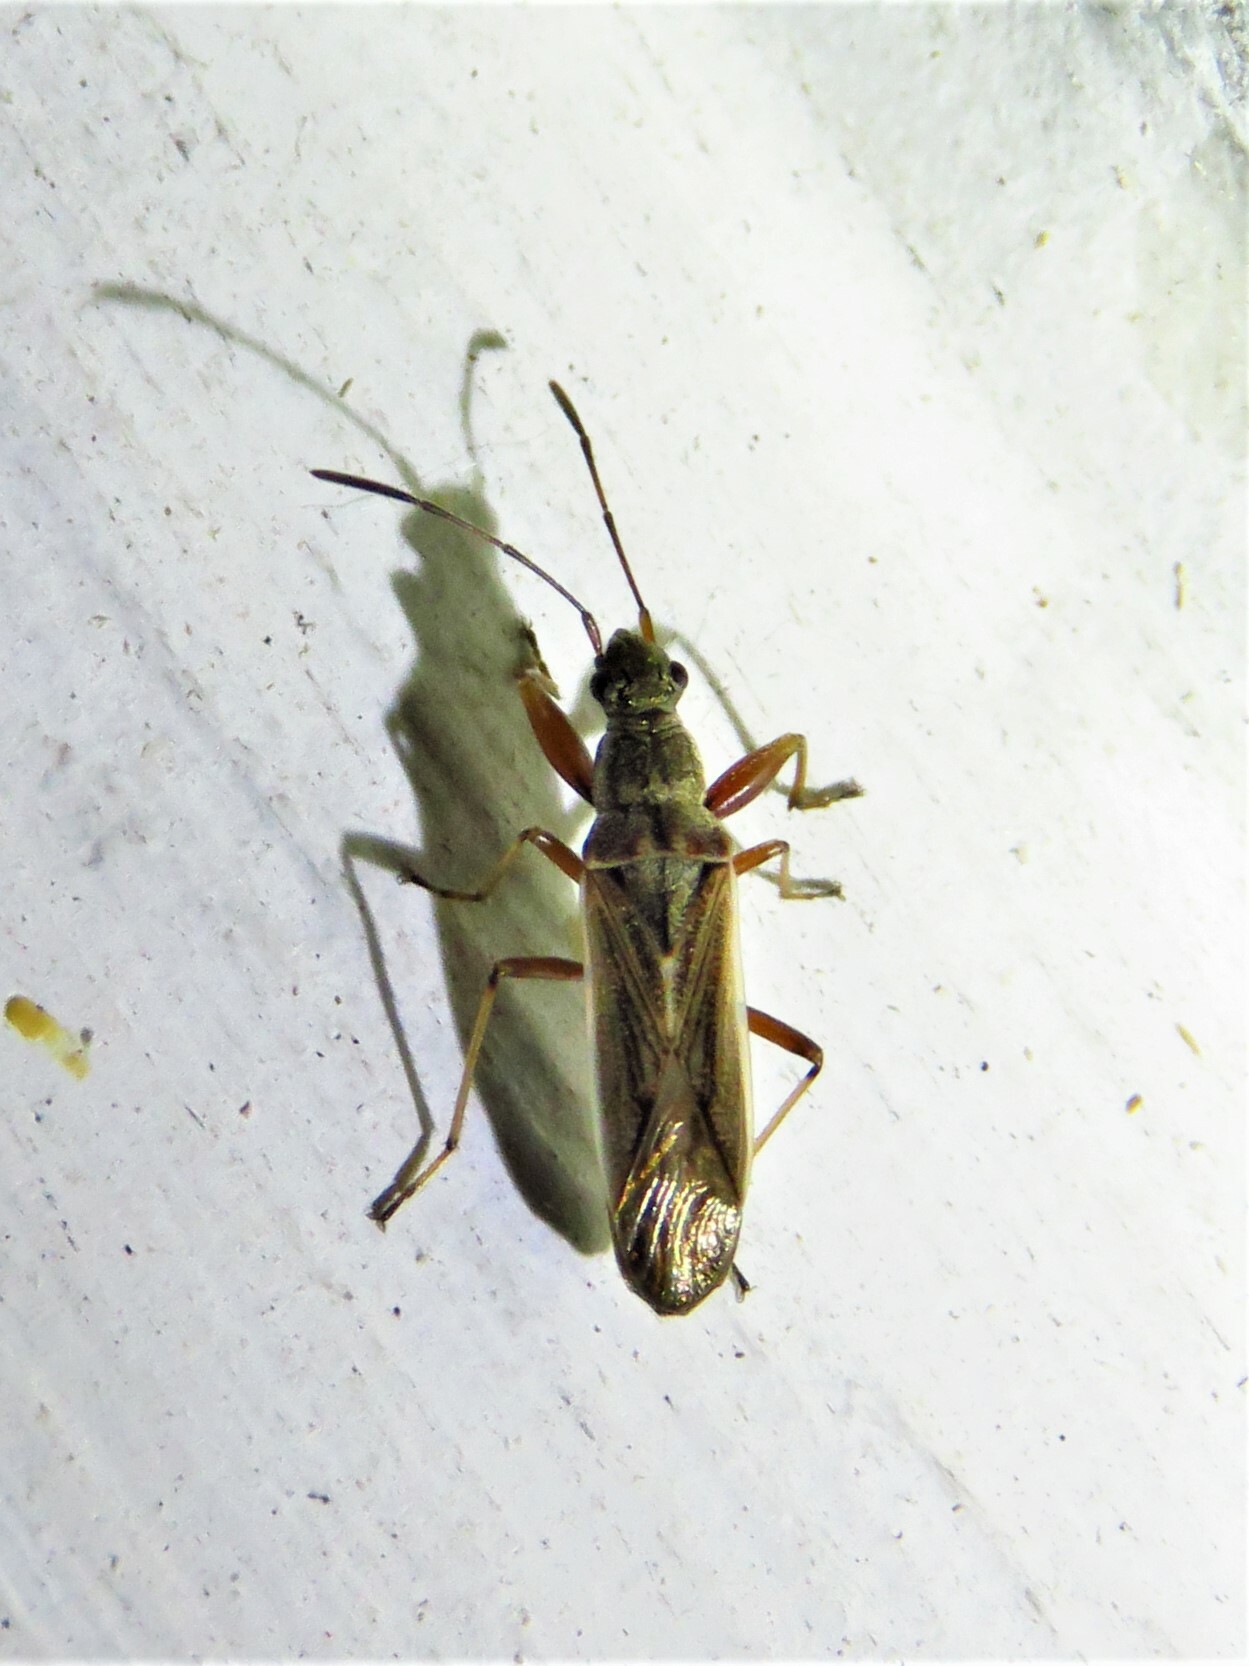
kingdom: Animalia
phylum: Arthropoda
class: Insecta
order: Hemiptera
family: Rhyparochromidae
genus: Paromius
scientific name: Paromius longulus
